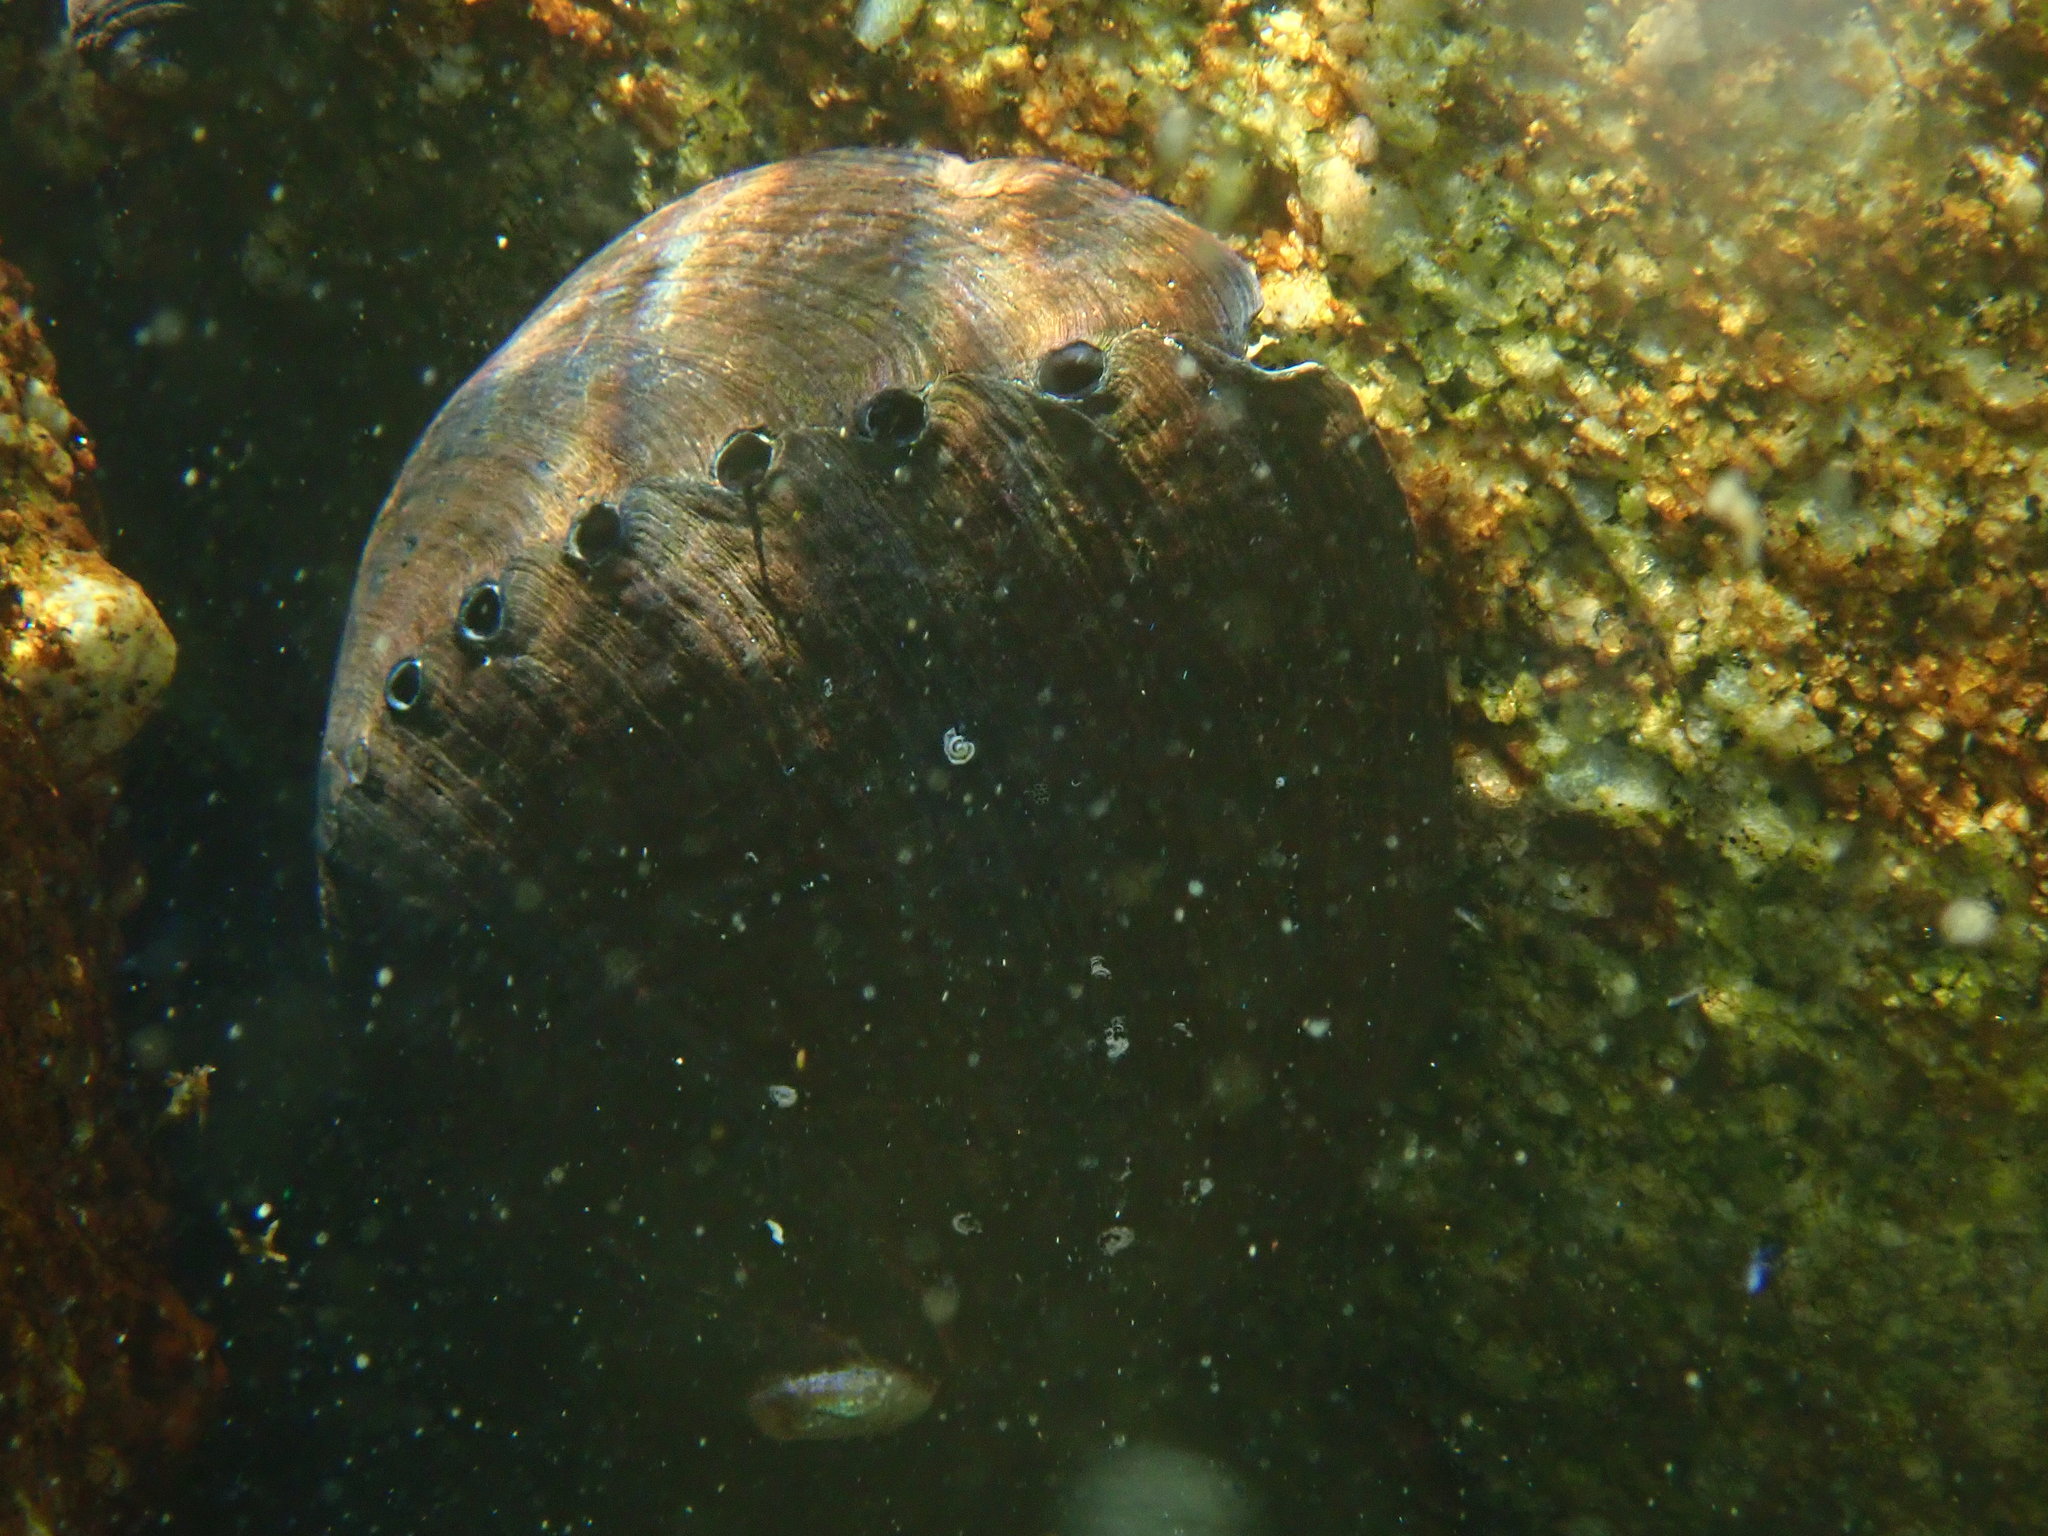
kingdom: Animalia
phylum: Mollusca
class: Gastropoda
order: Lepetellida
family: Haliotidae
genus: Haliotis
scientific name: Haliotis cracherodii
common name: Black abalone
